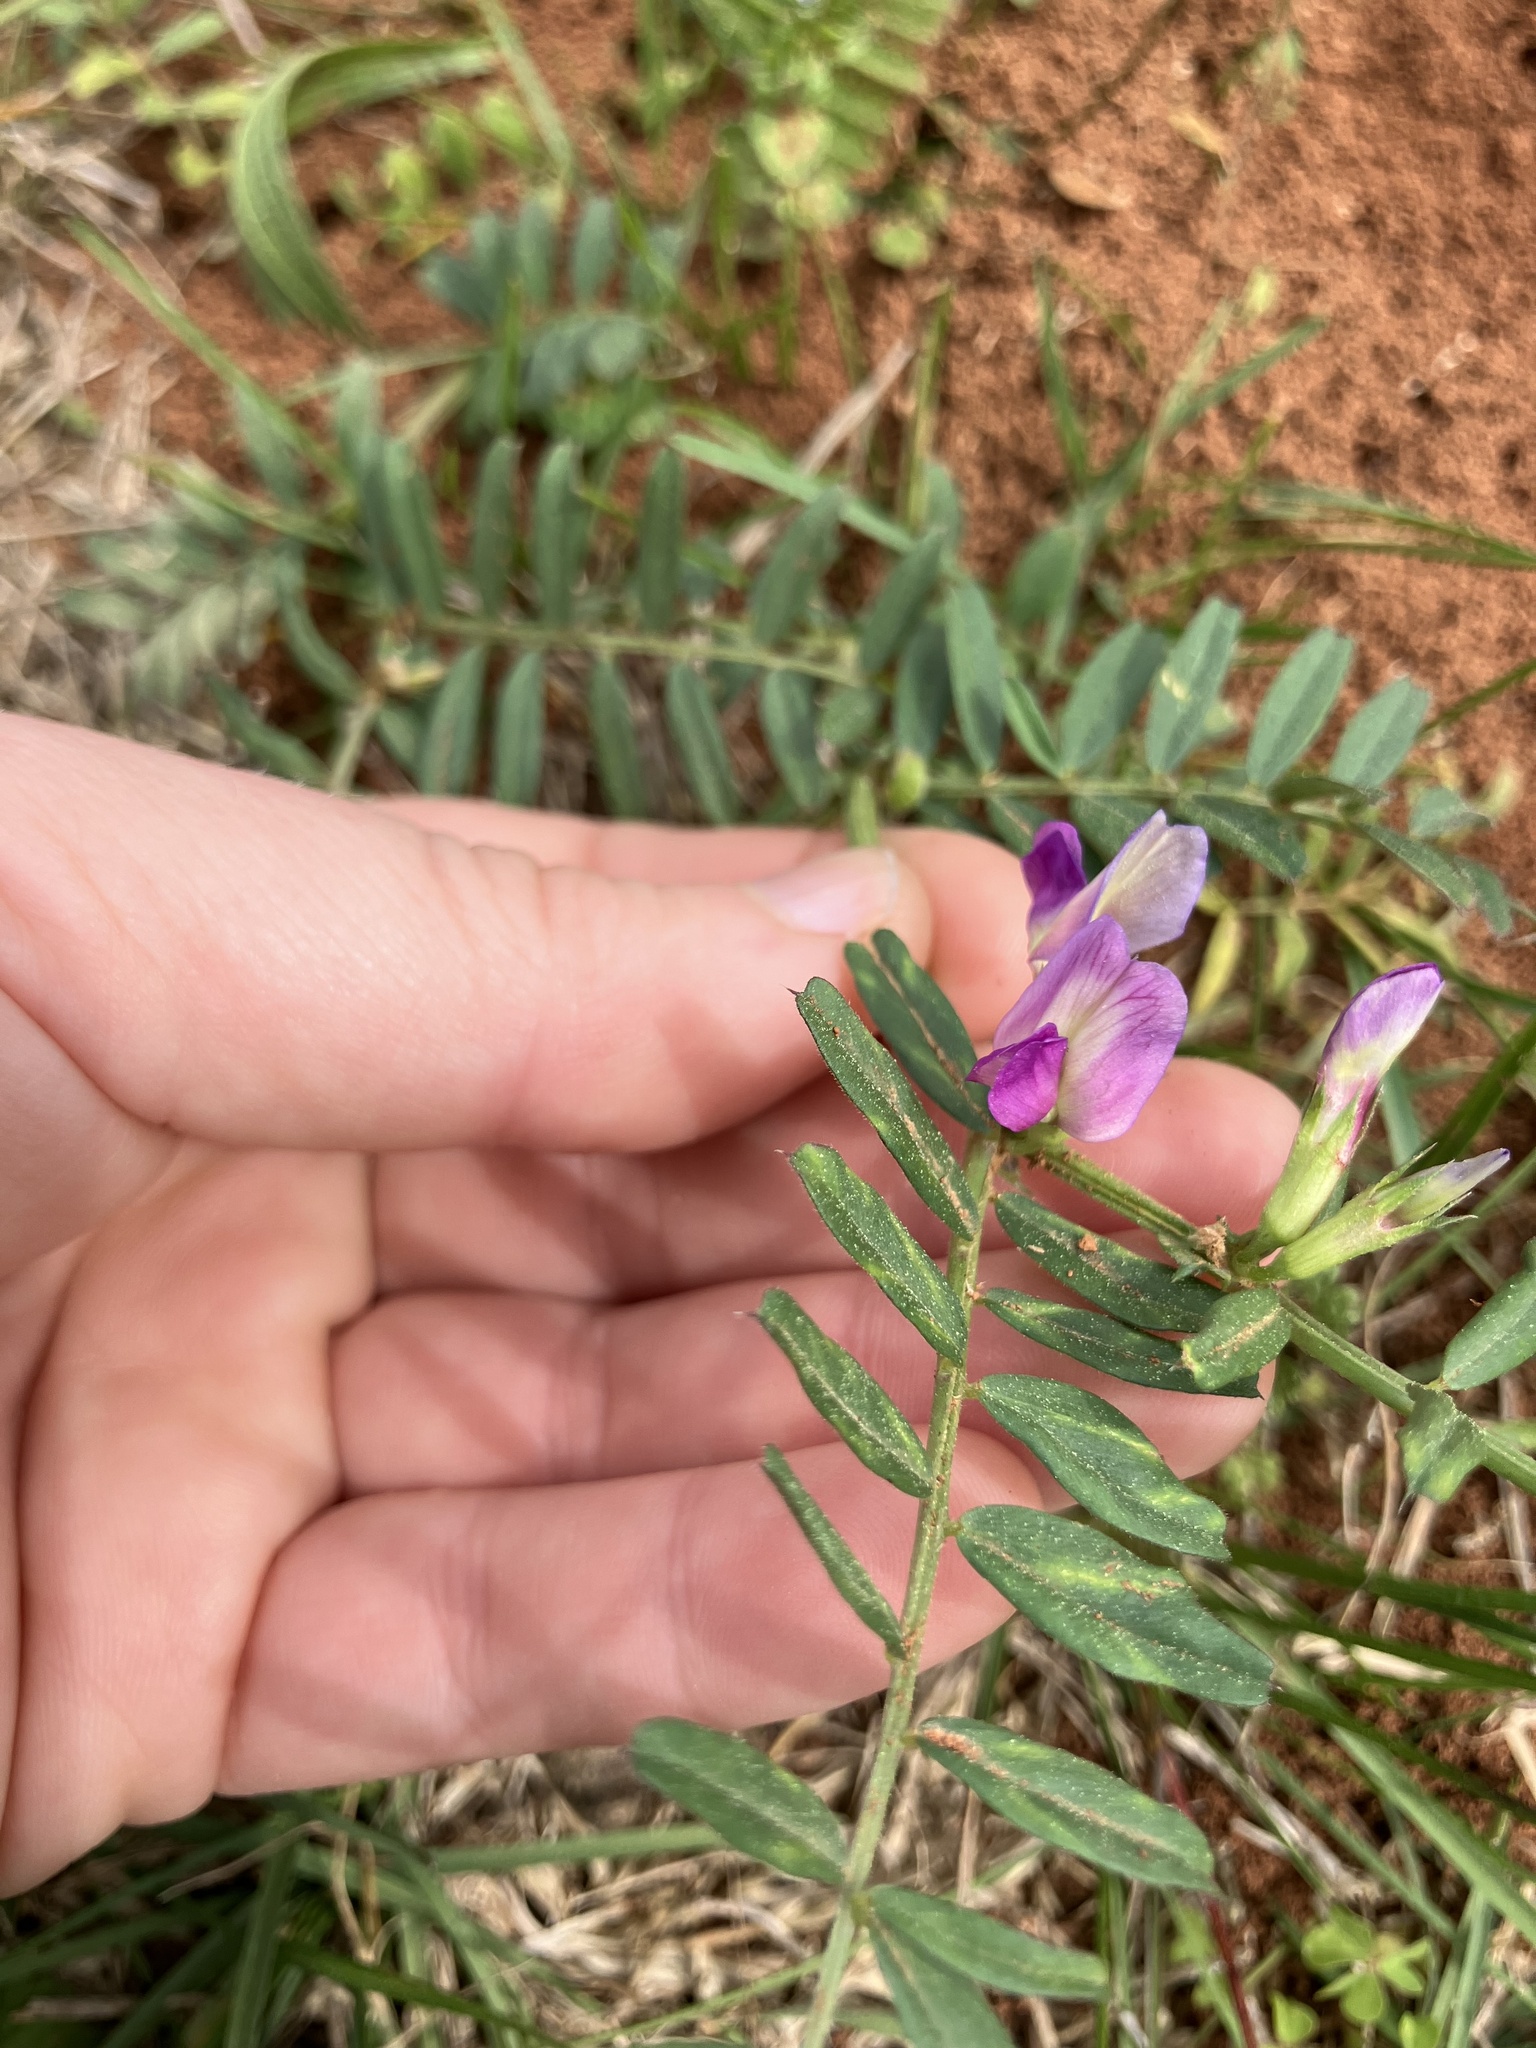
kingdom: Plantae
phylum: Tracheophyta
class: Magnoliopsida
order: Fabales
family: Fabaceae
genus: Vicia
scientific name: Vicia sativa
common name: Garden vetch
